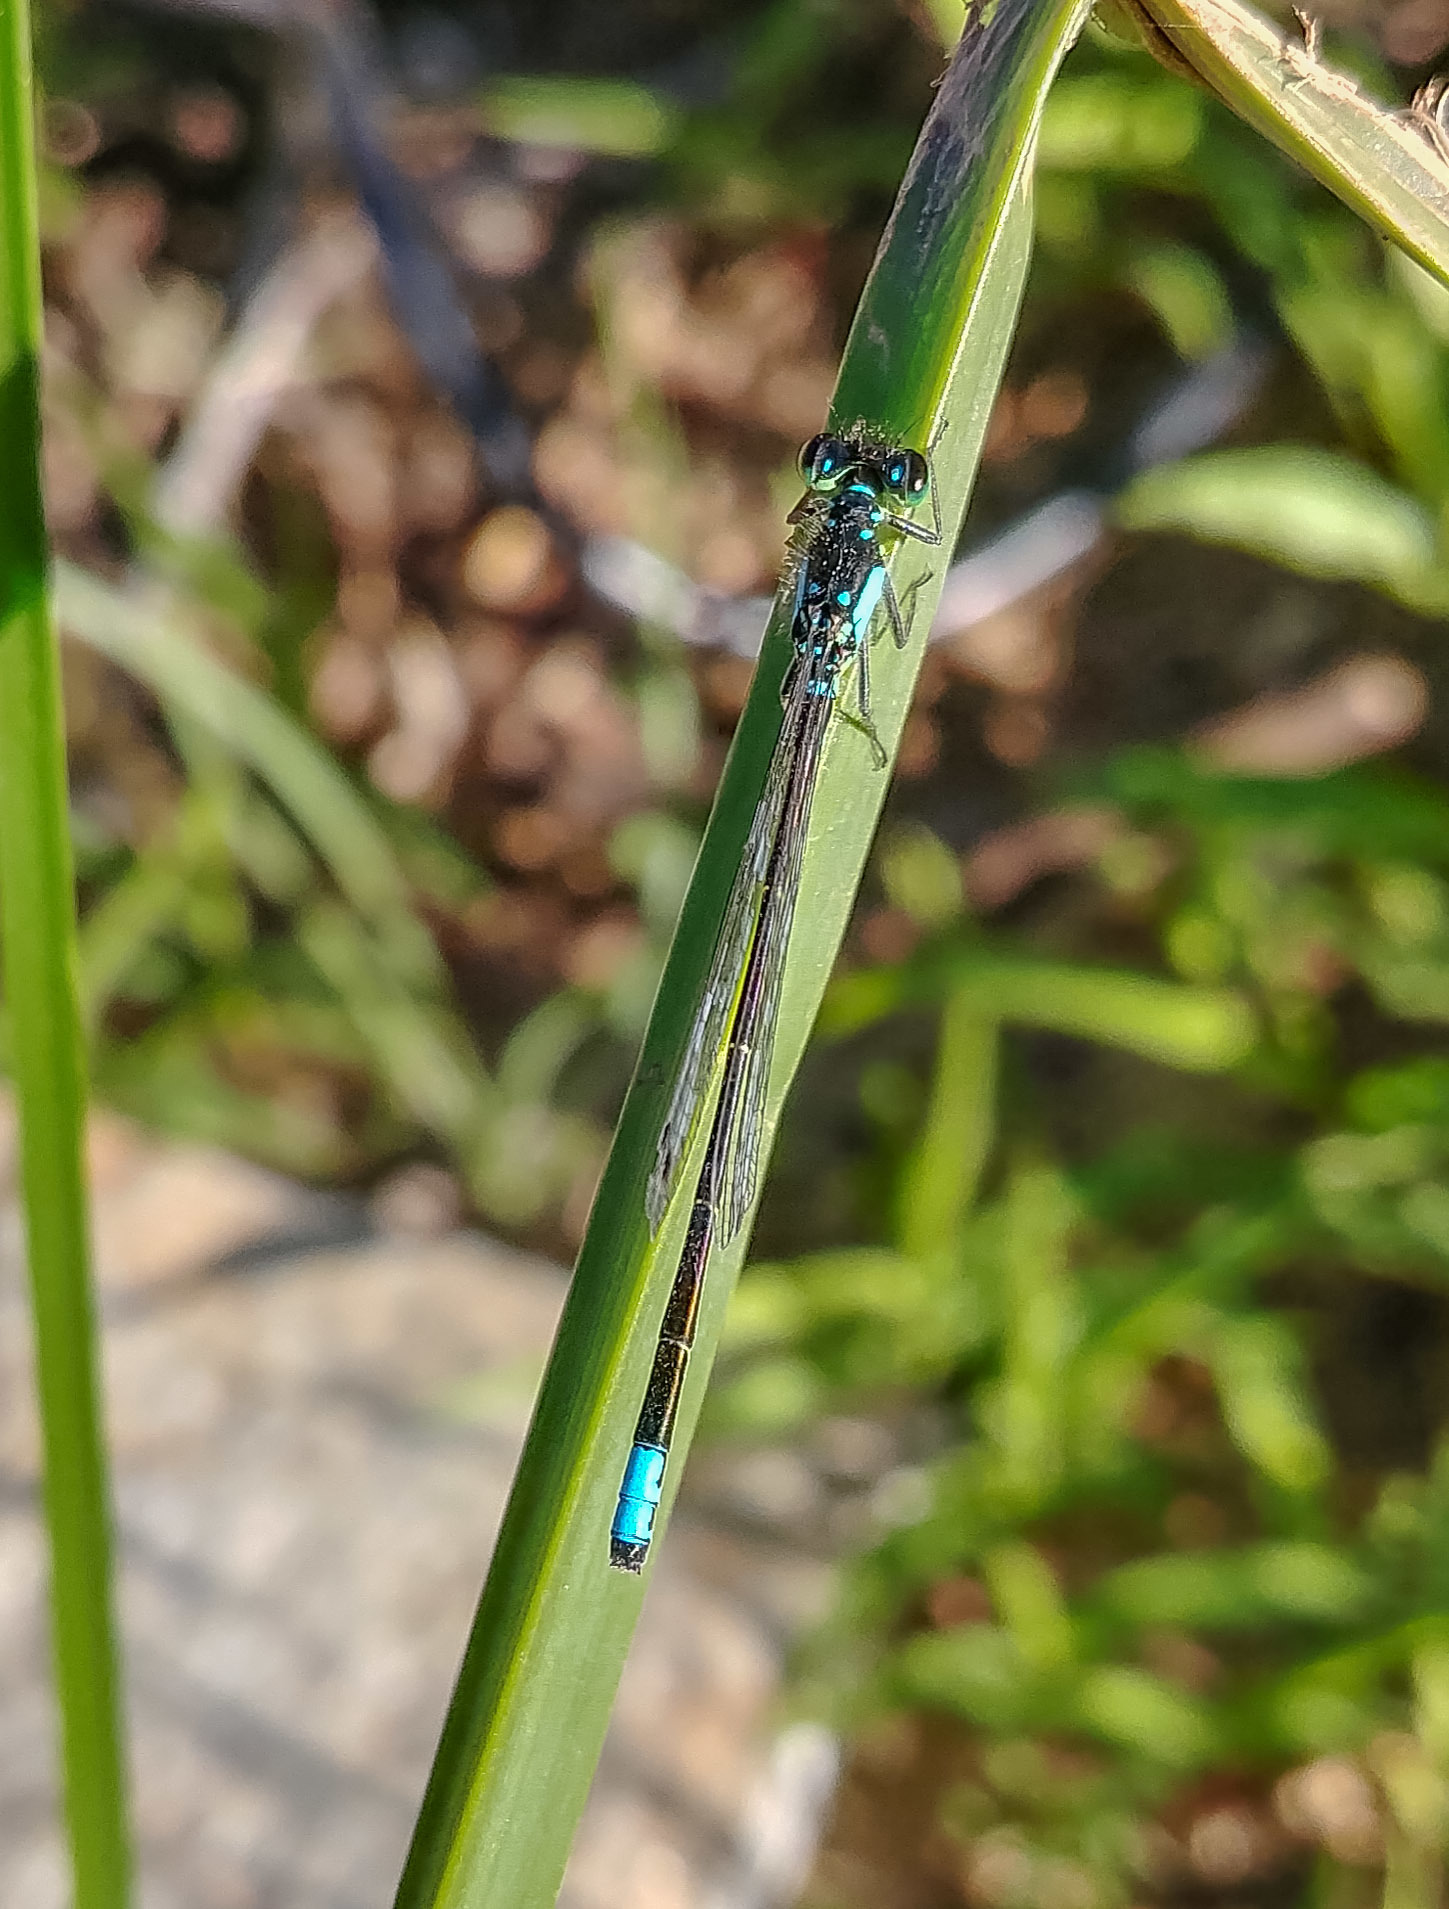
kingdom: Animalia
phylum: Arthropoda
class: Insecta
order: Odonata
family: Coenagrionidae
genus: Ischnura
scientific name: Ischnura cervula
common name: Pacific forktail
